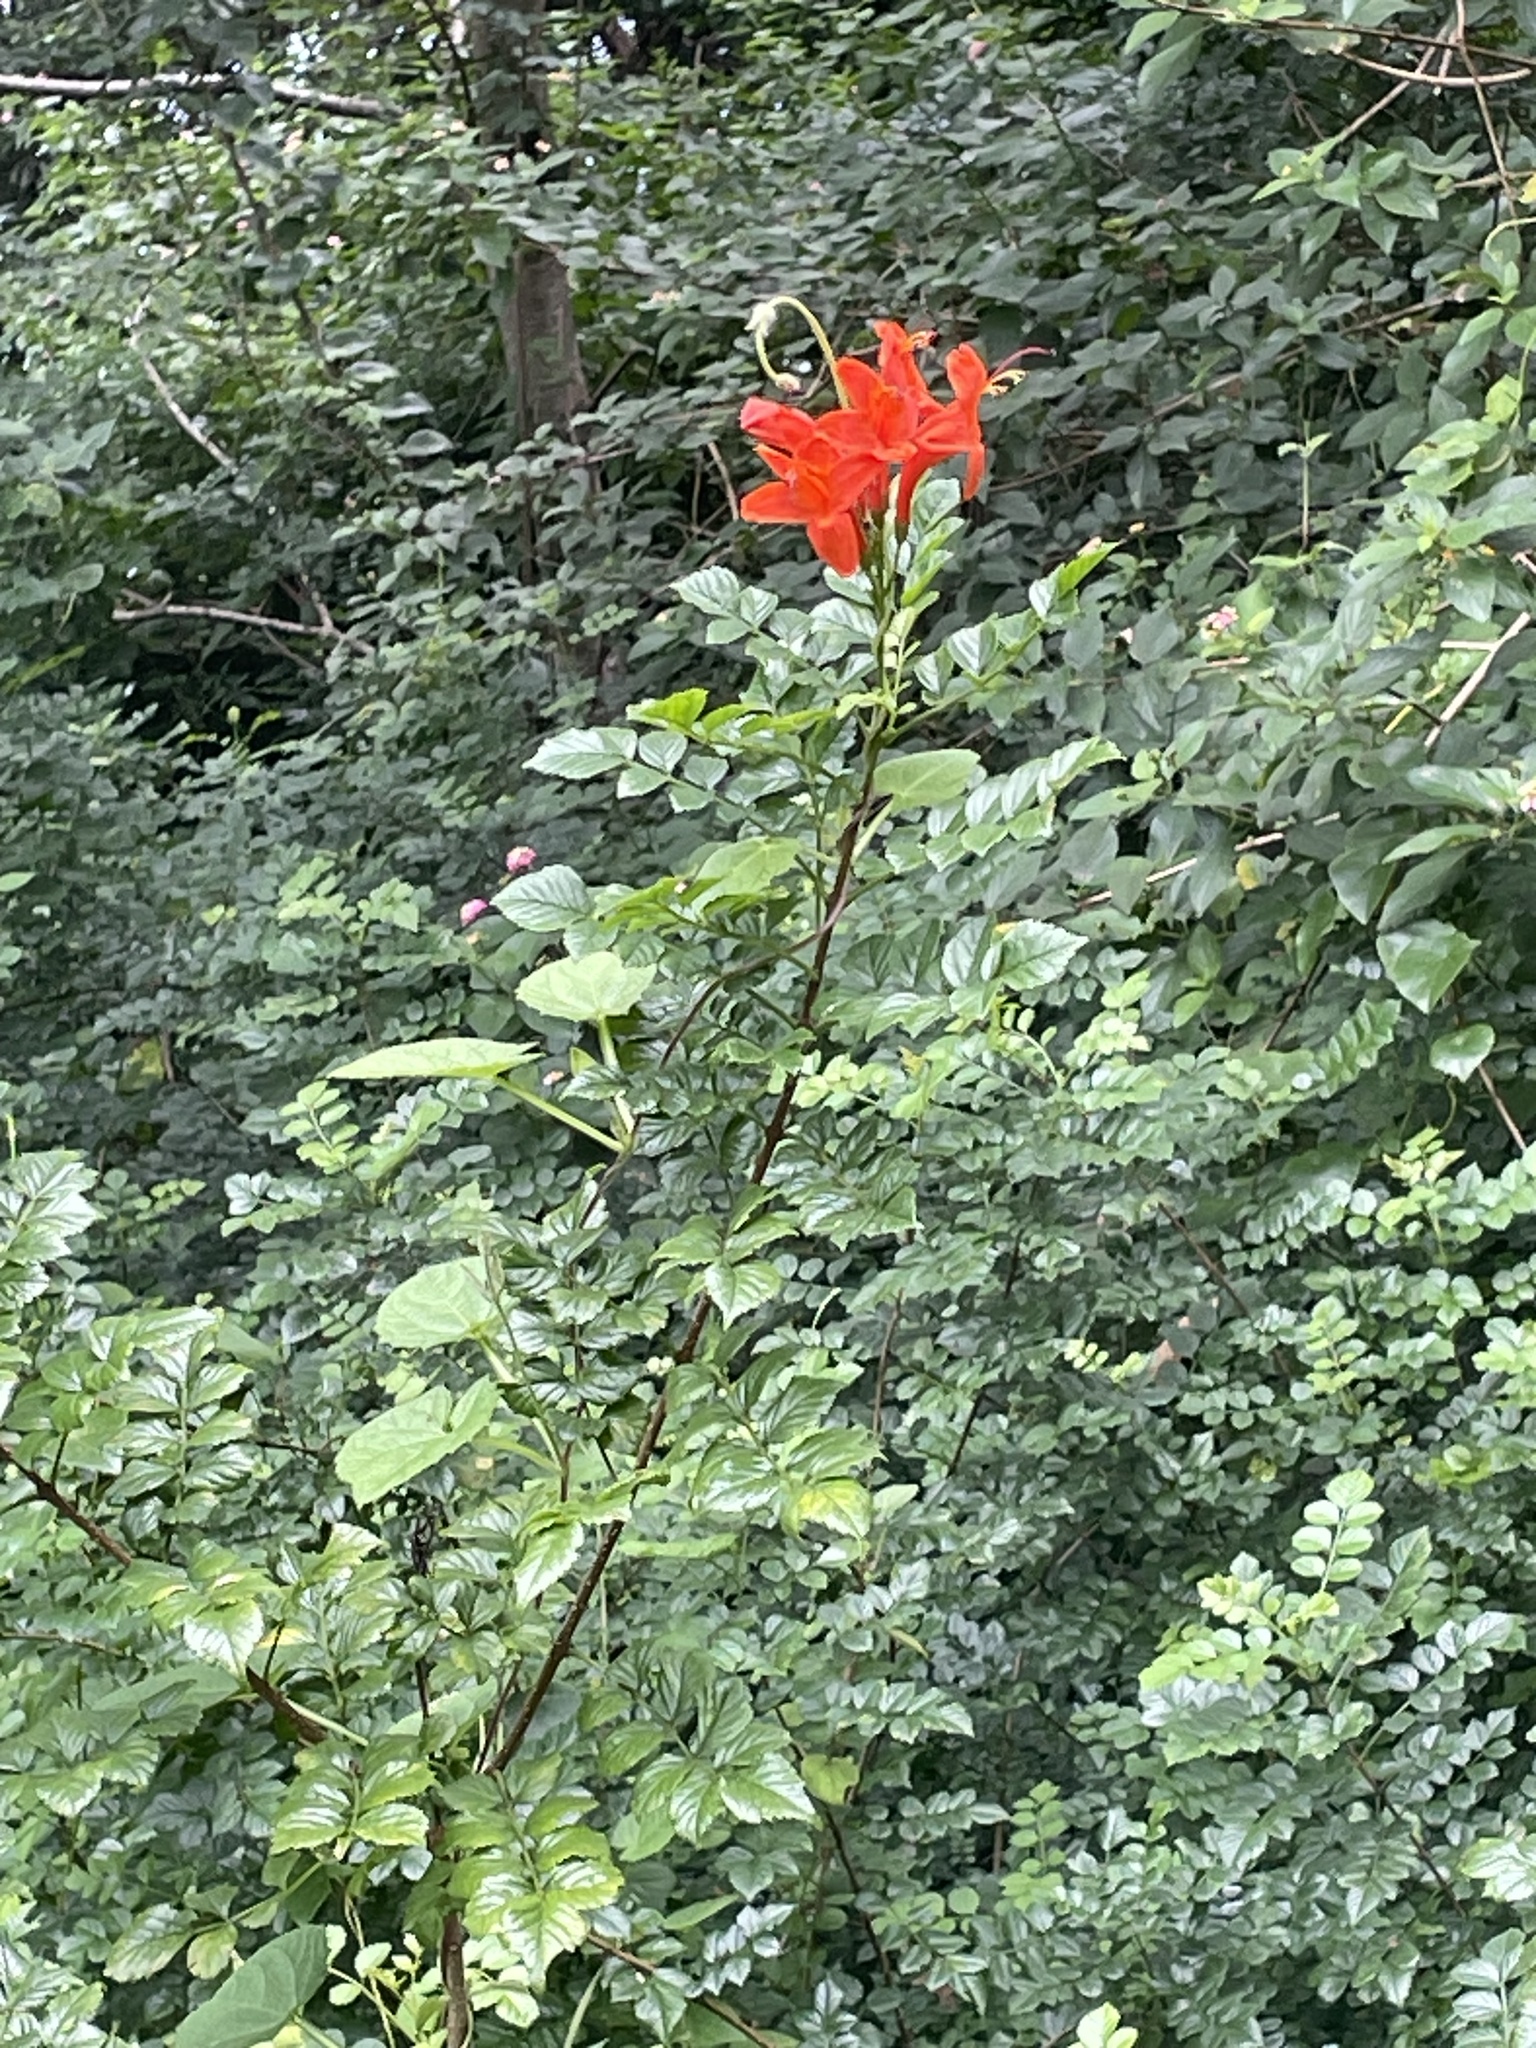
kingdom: Plantae
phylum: Tracheophyta
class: Magnoliopsida
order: Lamiales
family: Bignoniaceae
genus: Tecomaria
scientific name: Tecomaria capensis
